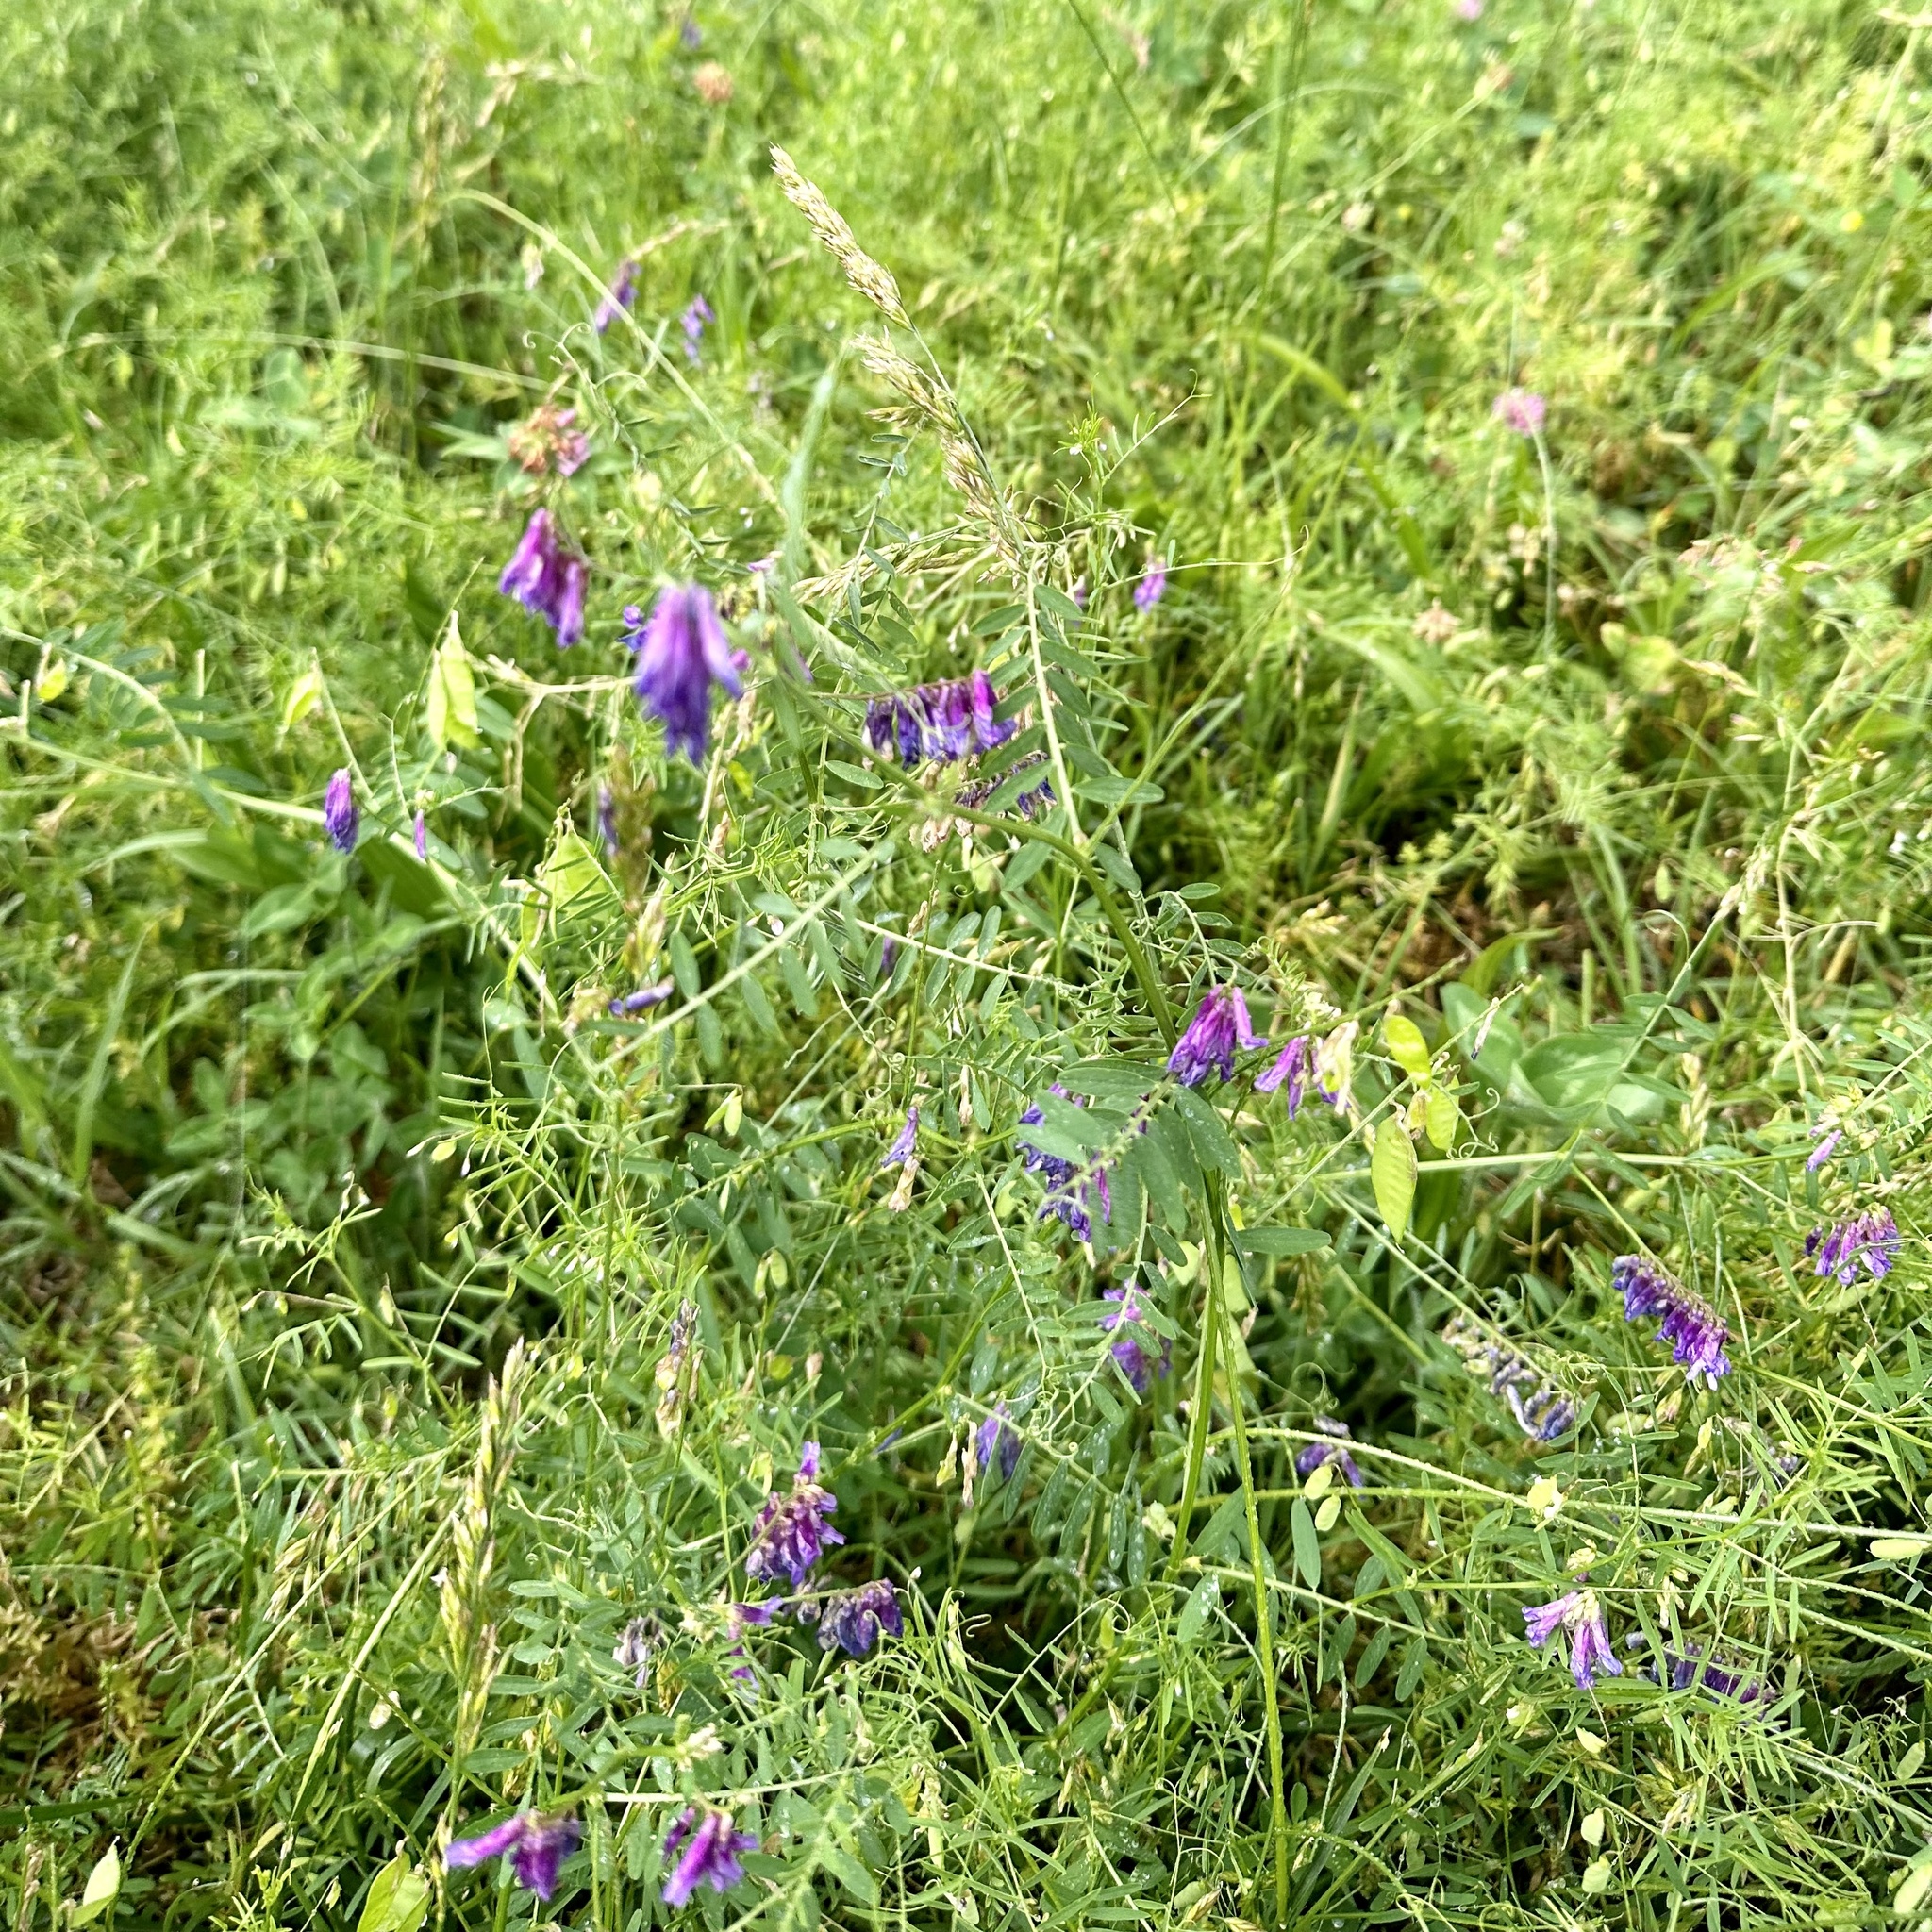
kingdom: Plantae
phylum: Tracheophyta
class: Magnoliopsida
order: Fabales
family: Fabaceae
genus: Vicia
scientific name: Vicia villosa
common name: Fodder vetch
